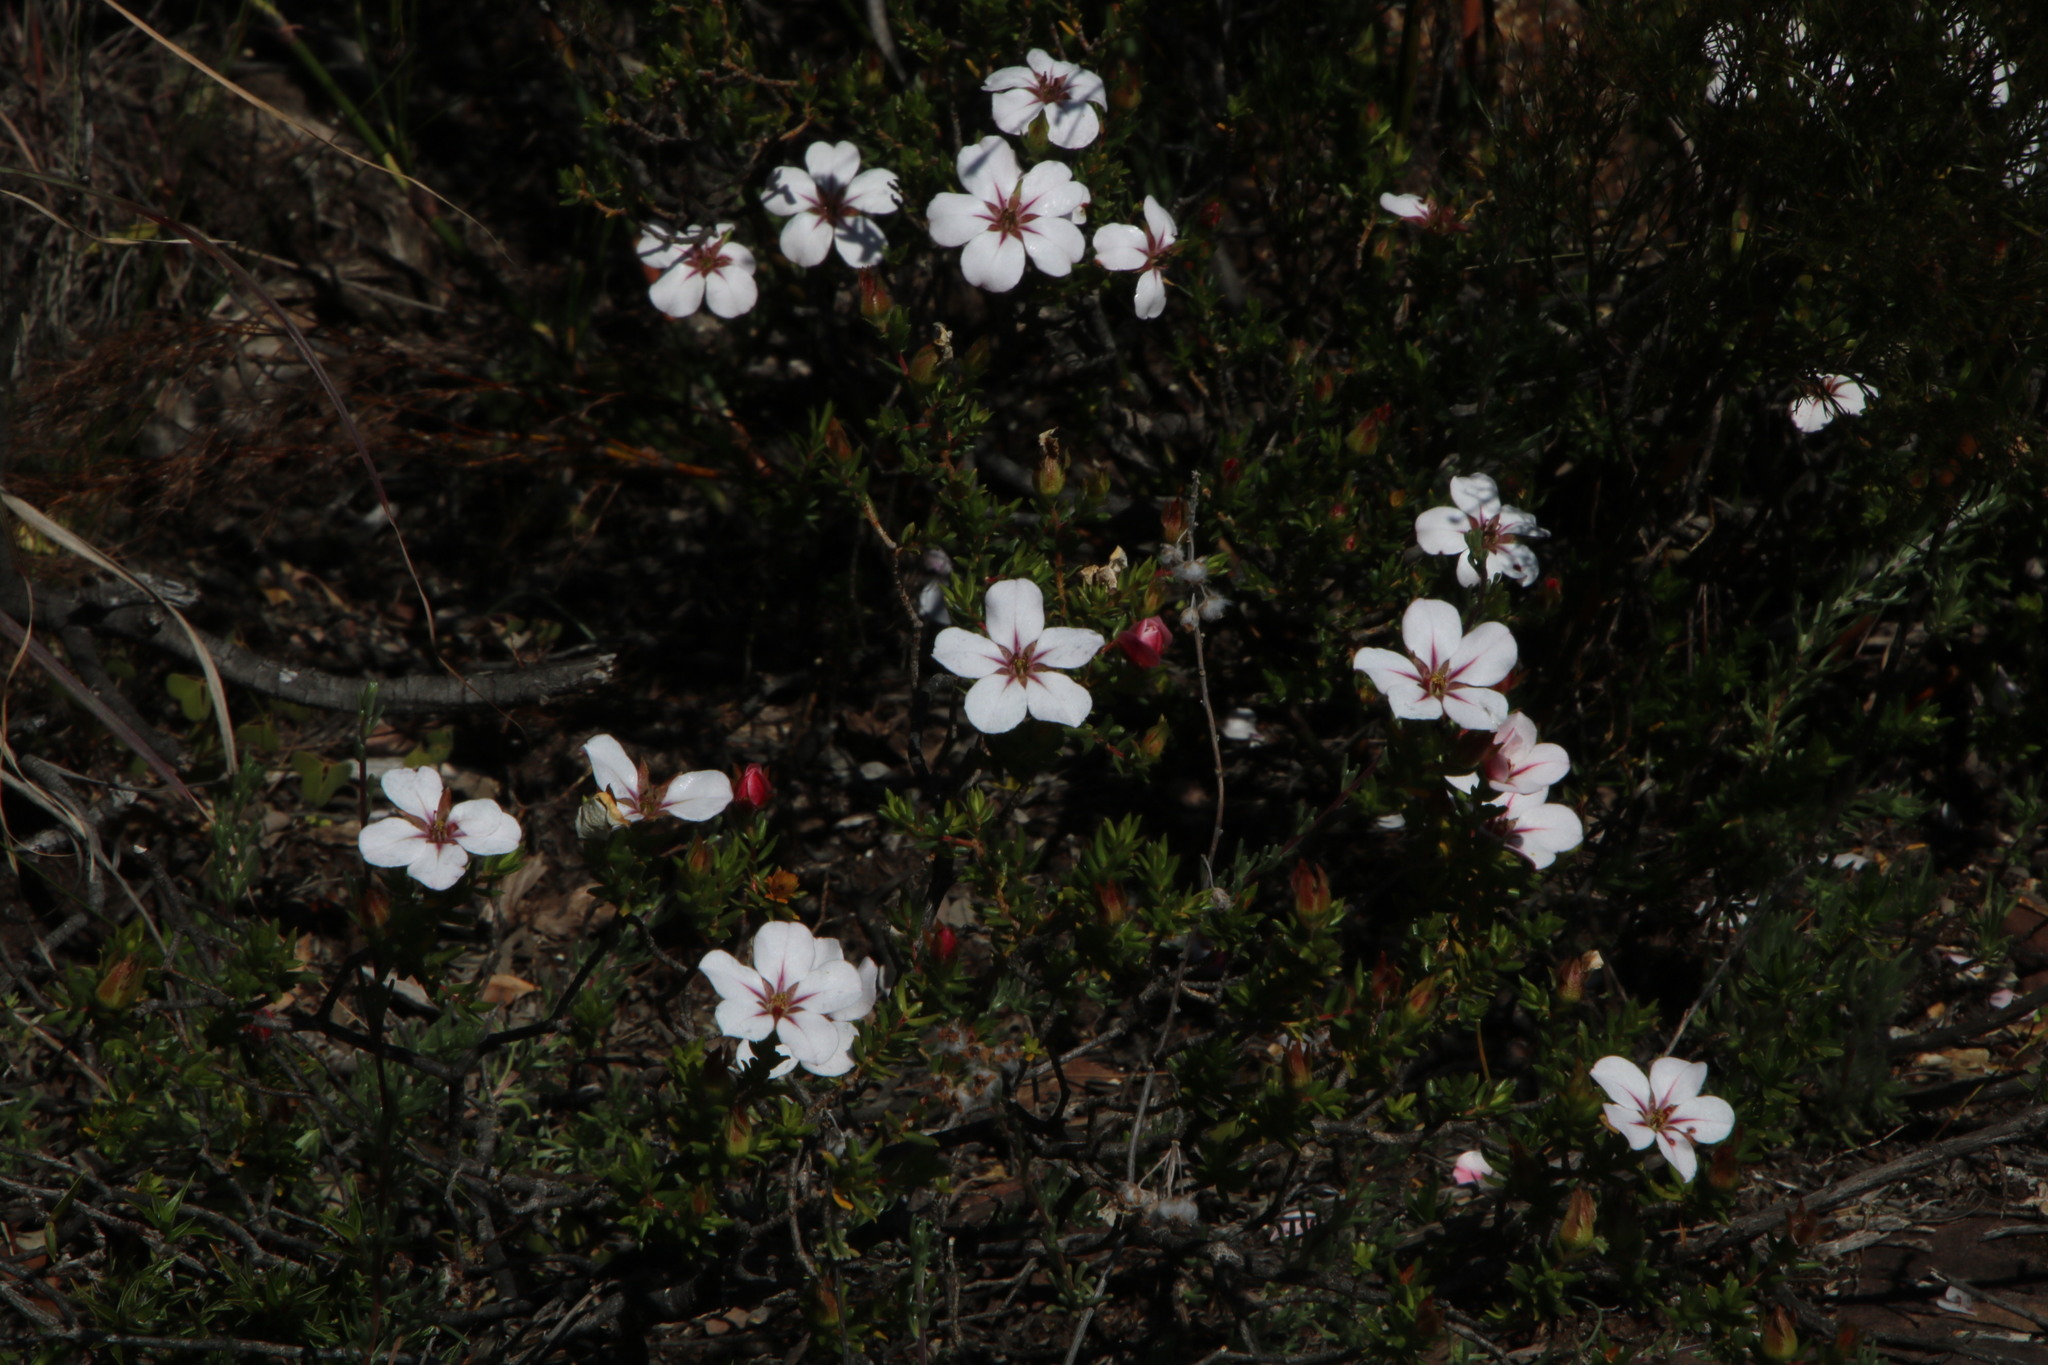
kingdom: Plantae
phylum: Tracheophyta
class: Magnoliopsida
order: Sapindales
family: Rutaceae
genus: Adenandra
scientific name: Adenandra uniflora
